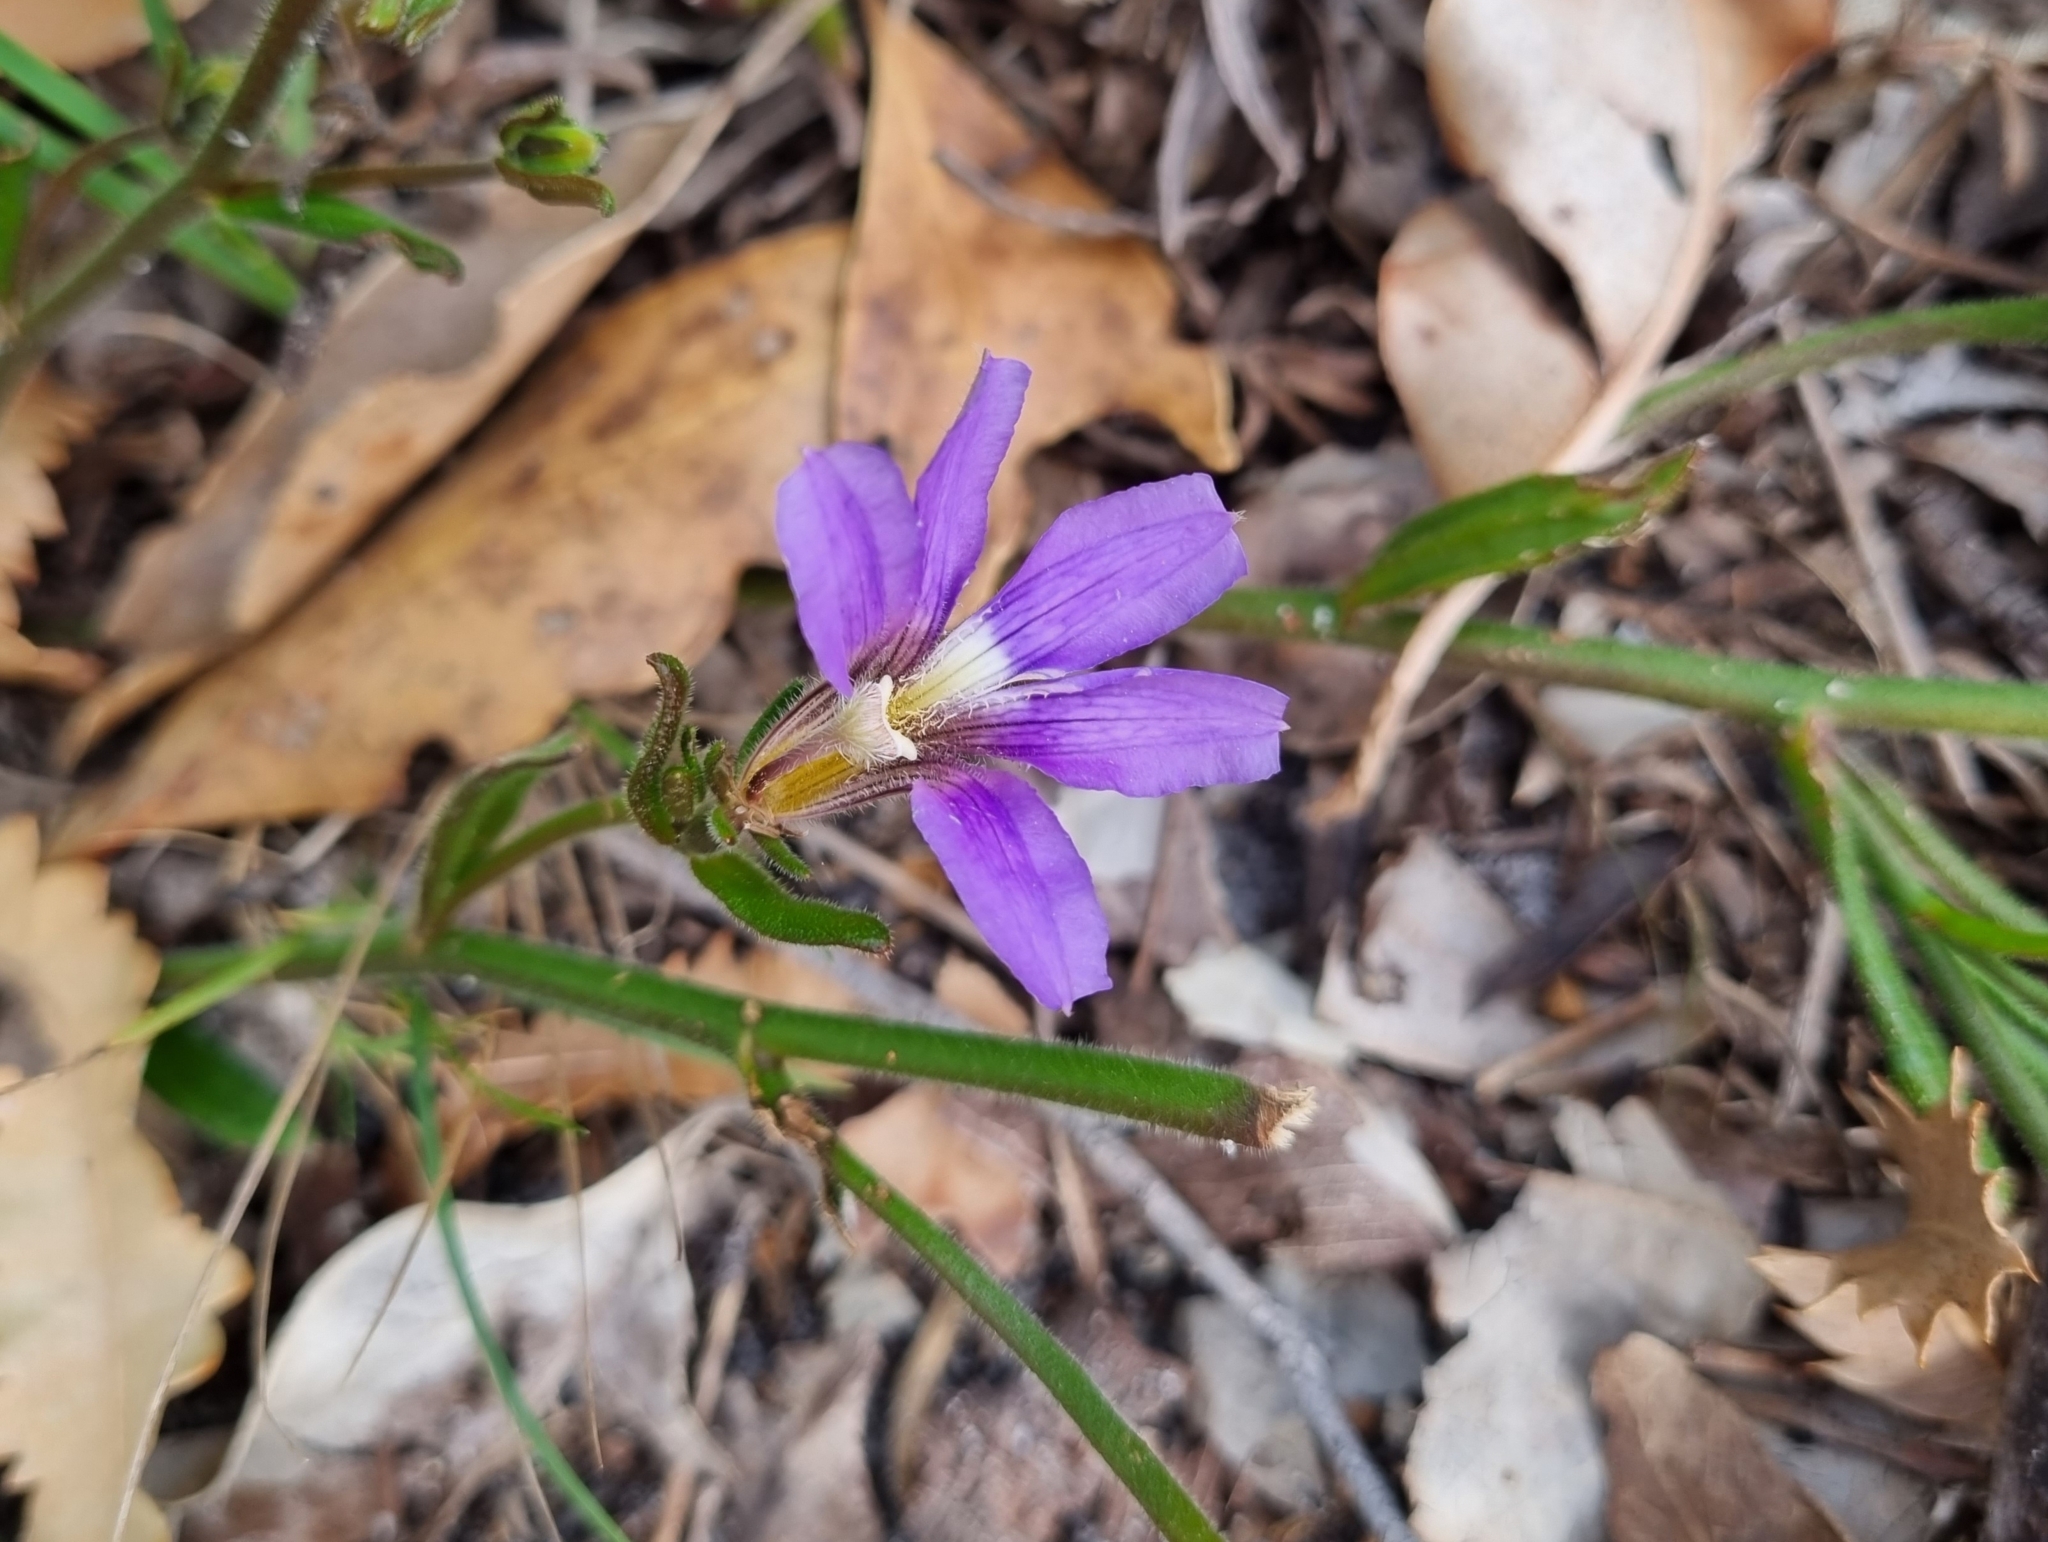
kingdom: Plantae
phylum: Tracheophyta
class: Magnoliopsida
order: Asterales
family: Goodeniaceae
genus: Scaevola
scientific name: Scaevola ramosissima
